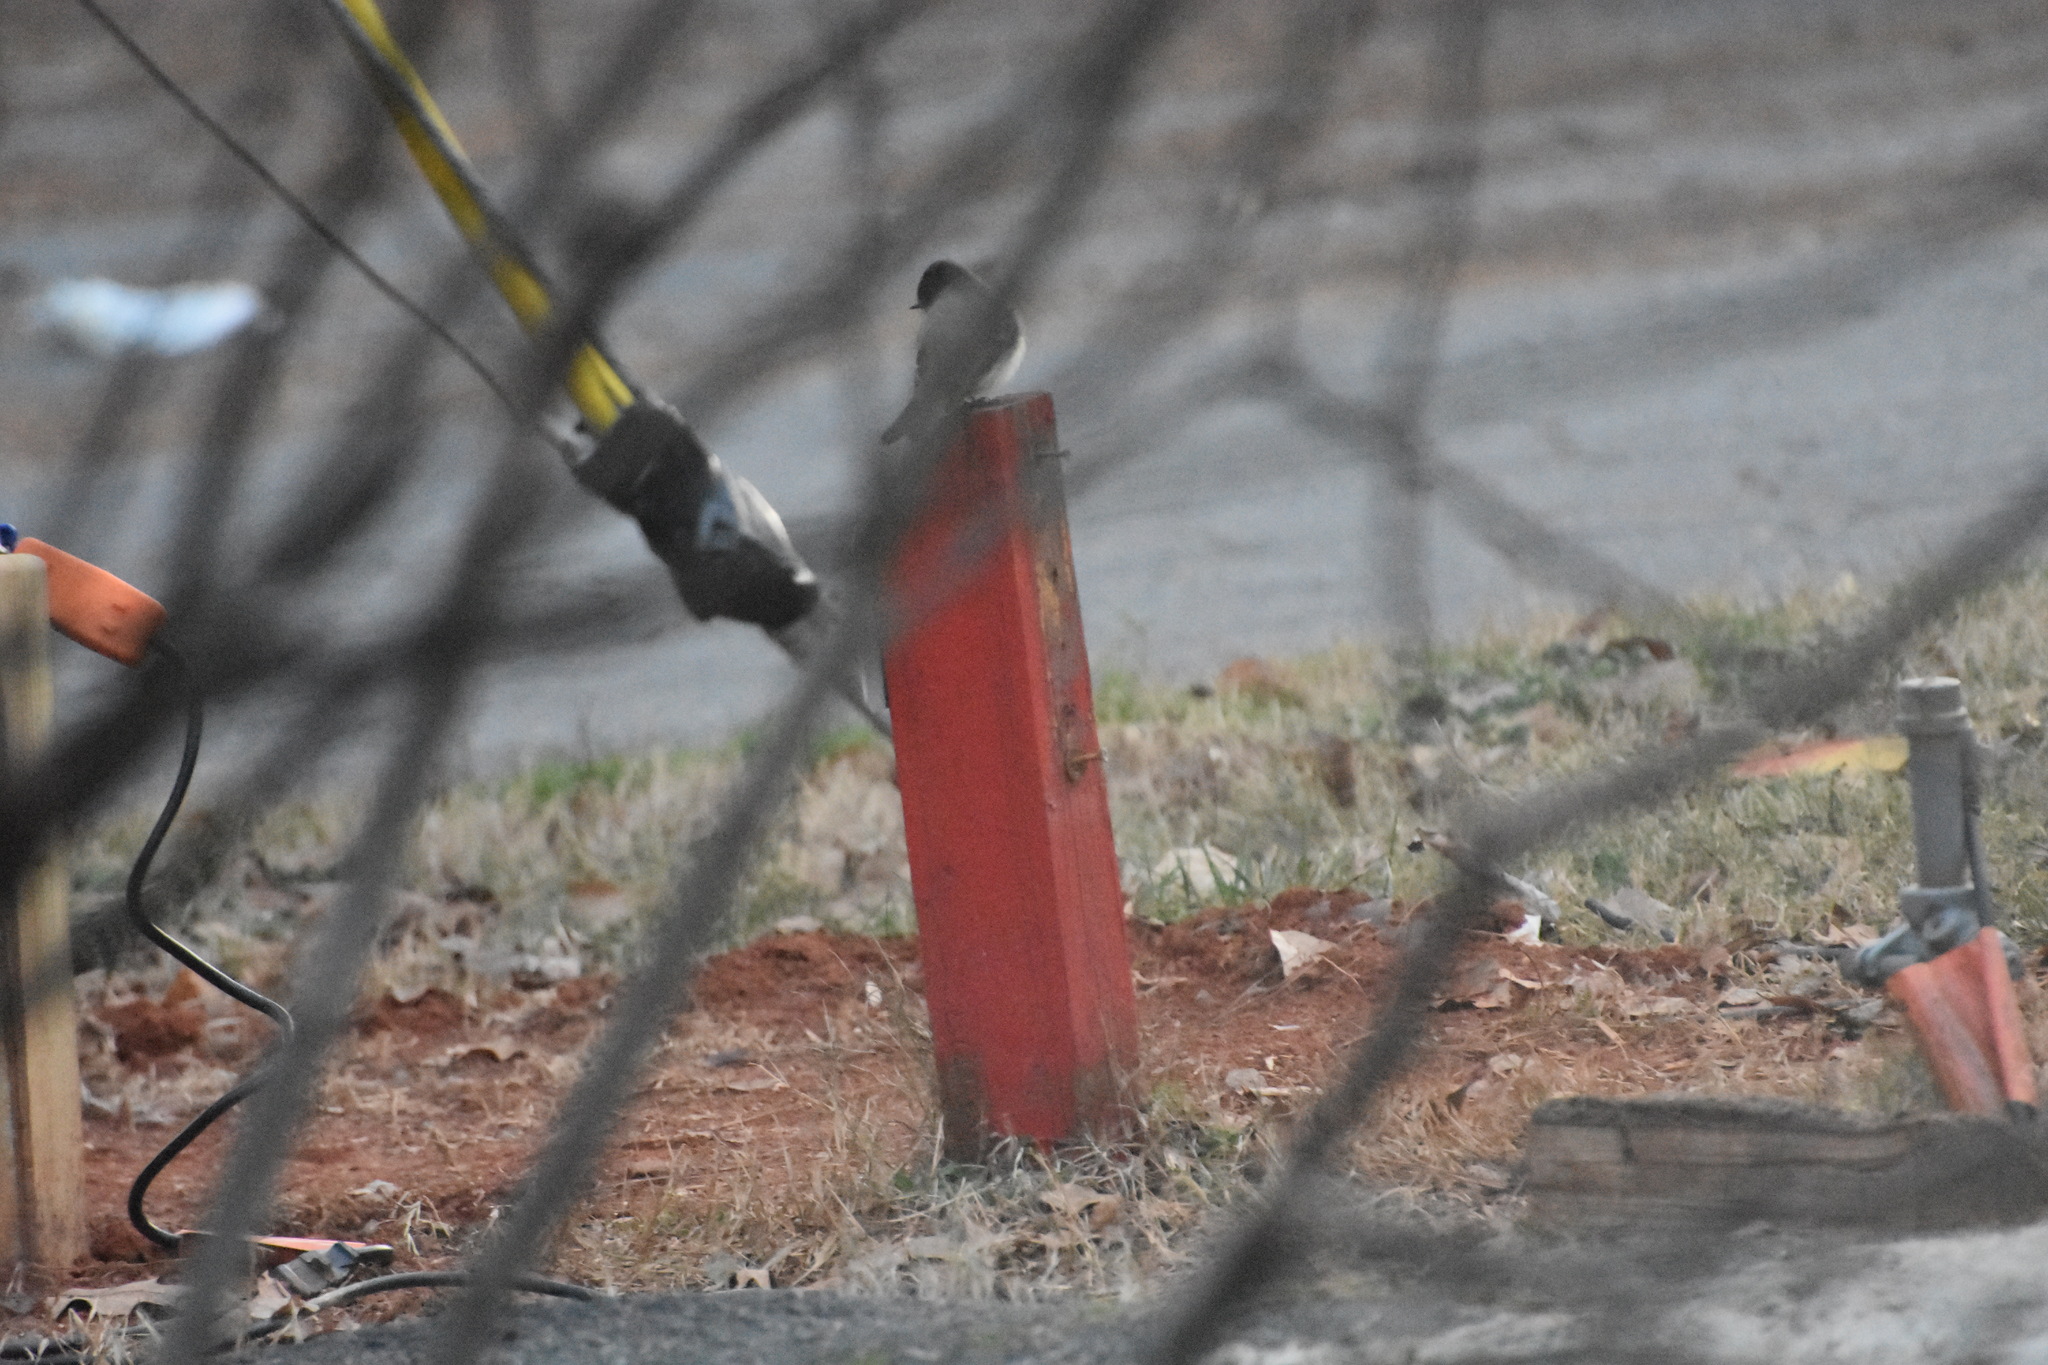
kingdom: Animalia
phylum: Chordata
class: Aves
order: Passeriformes
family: Tyrannidae
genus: Sayornis
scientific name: Sayornis phoebe
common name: Eastern phoebe
